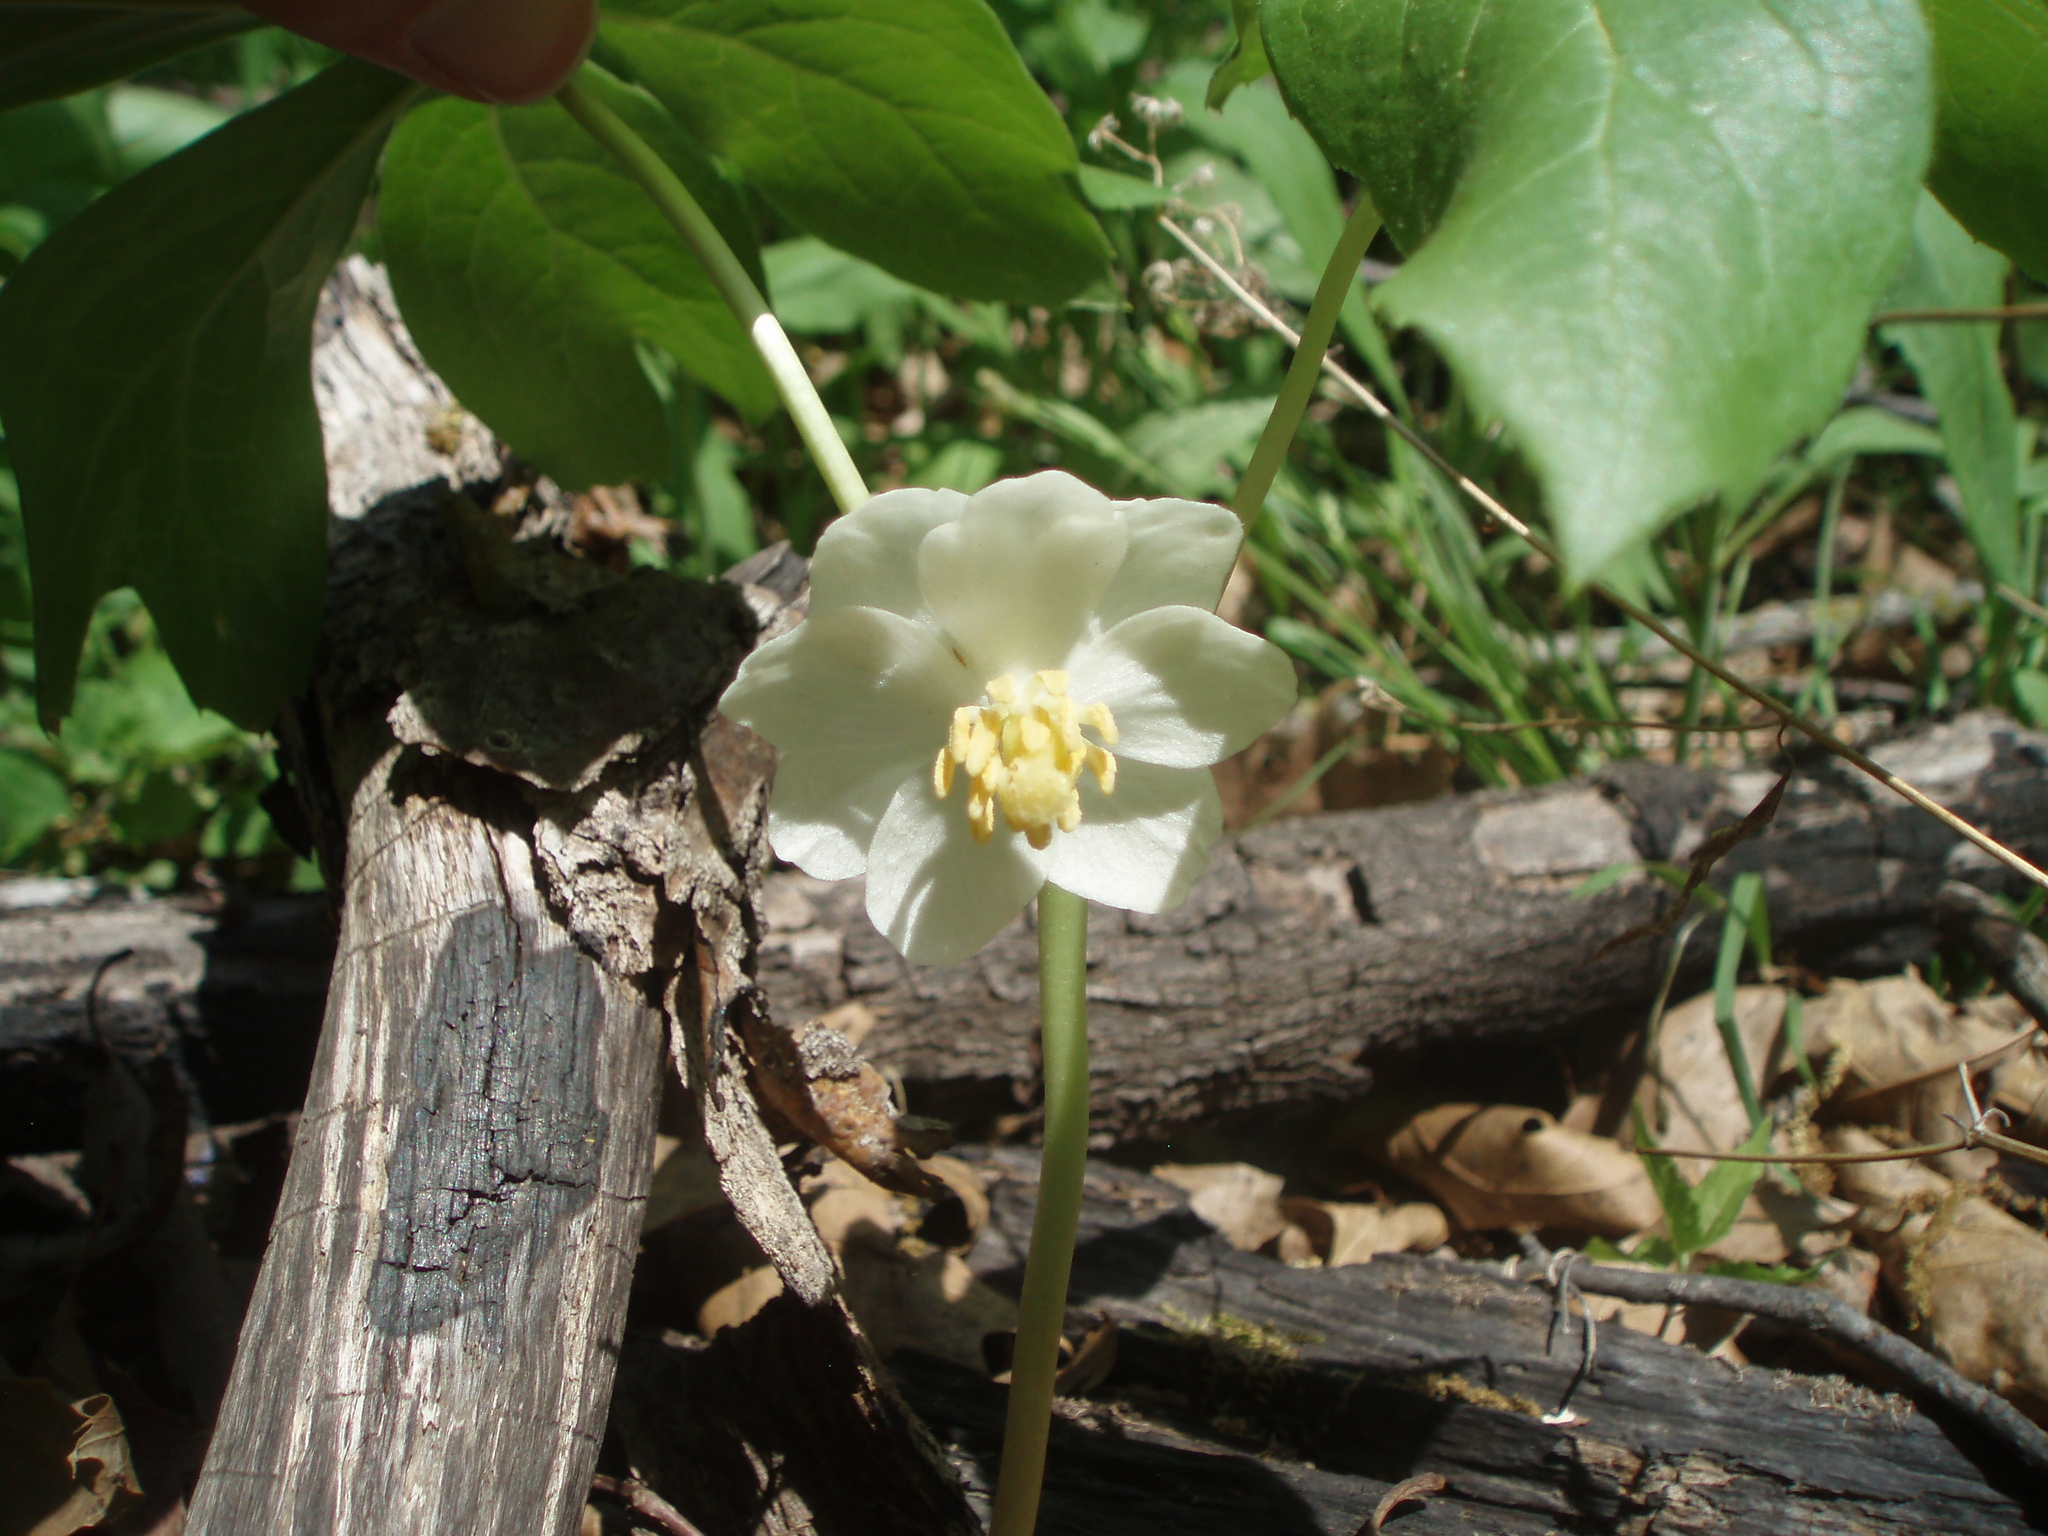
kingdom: Plantae
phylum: Tracheophyta
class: Magnoliopsida
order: Ranunculales
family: Berberidaceae
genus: Podophyllum
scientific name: Podophyllum peltatum
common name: Wild mandrake
